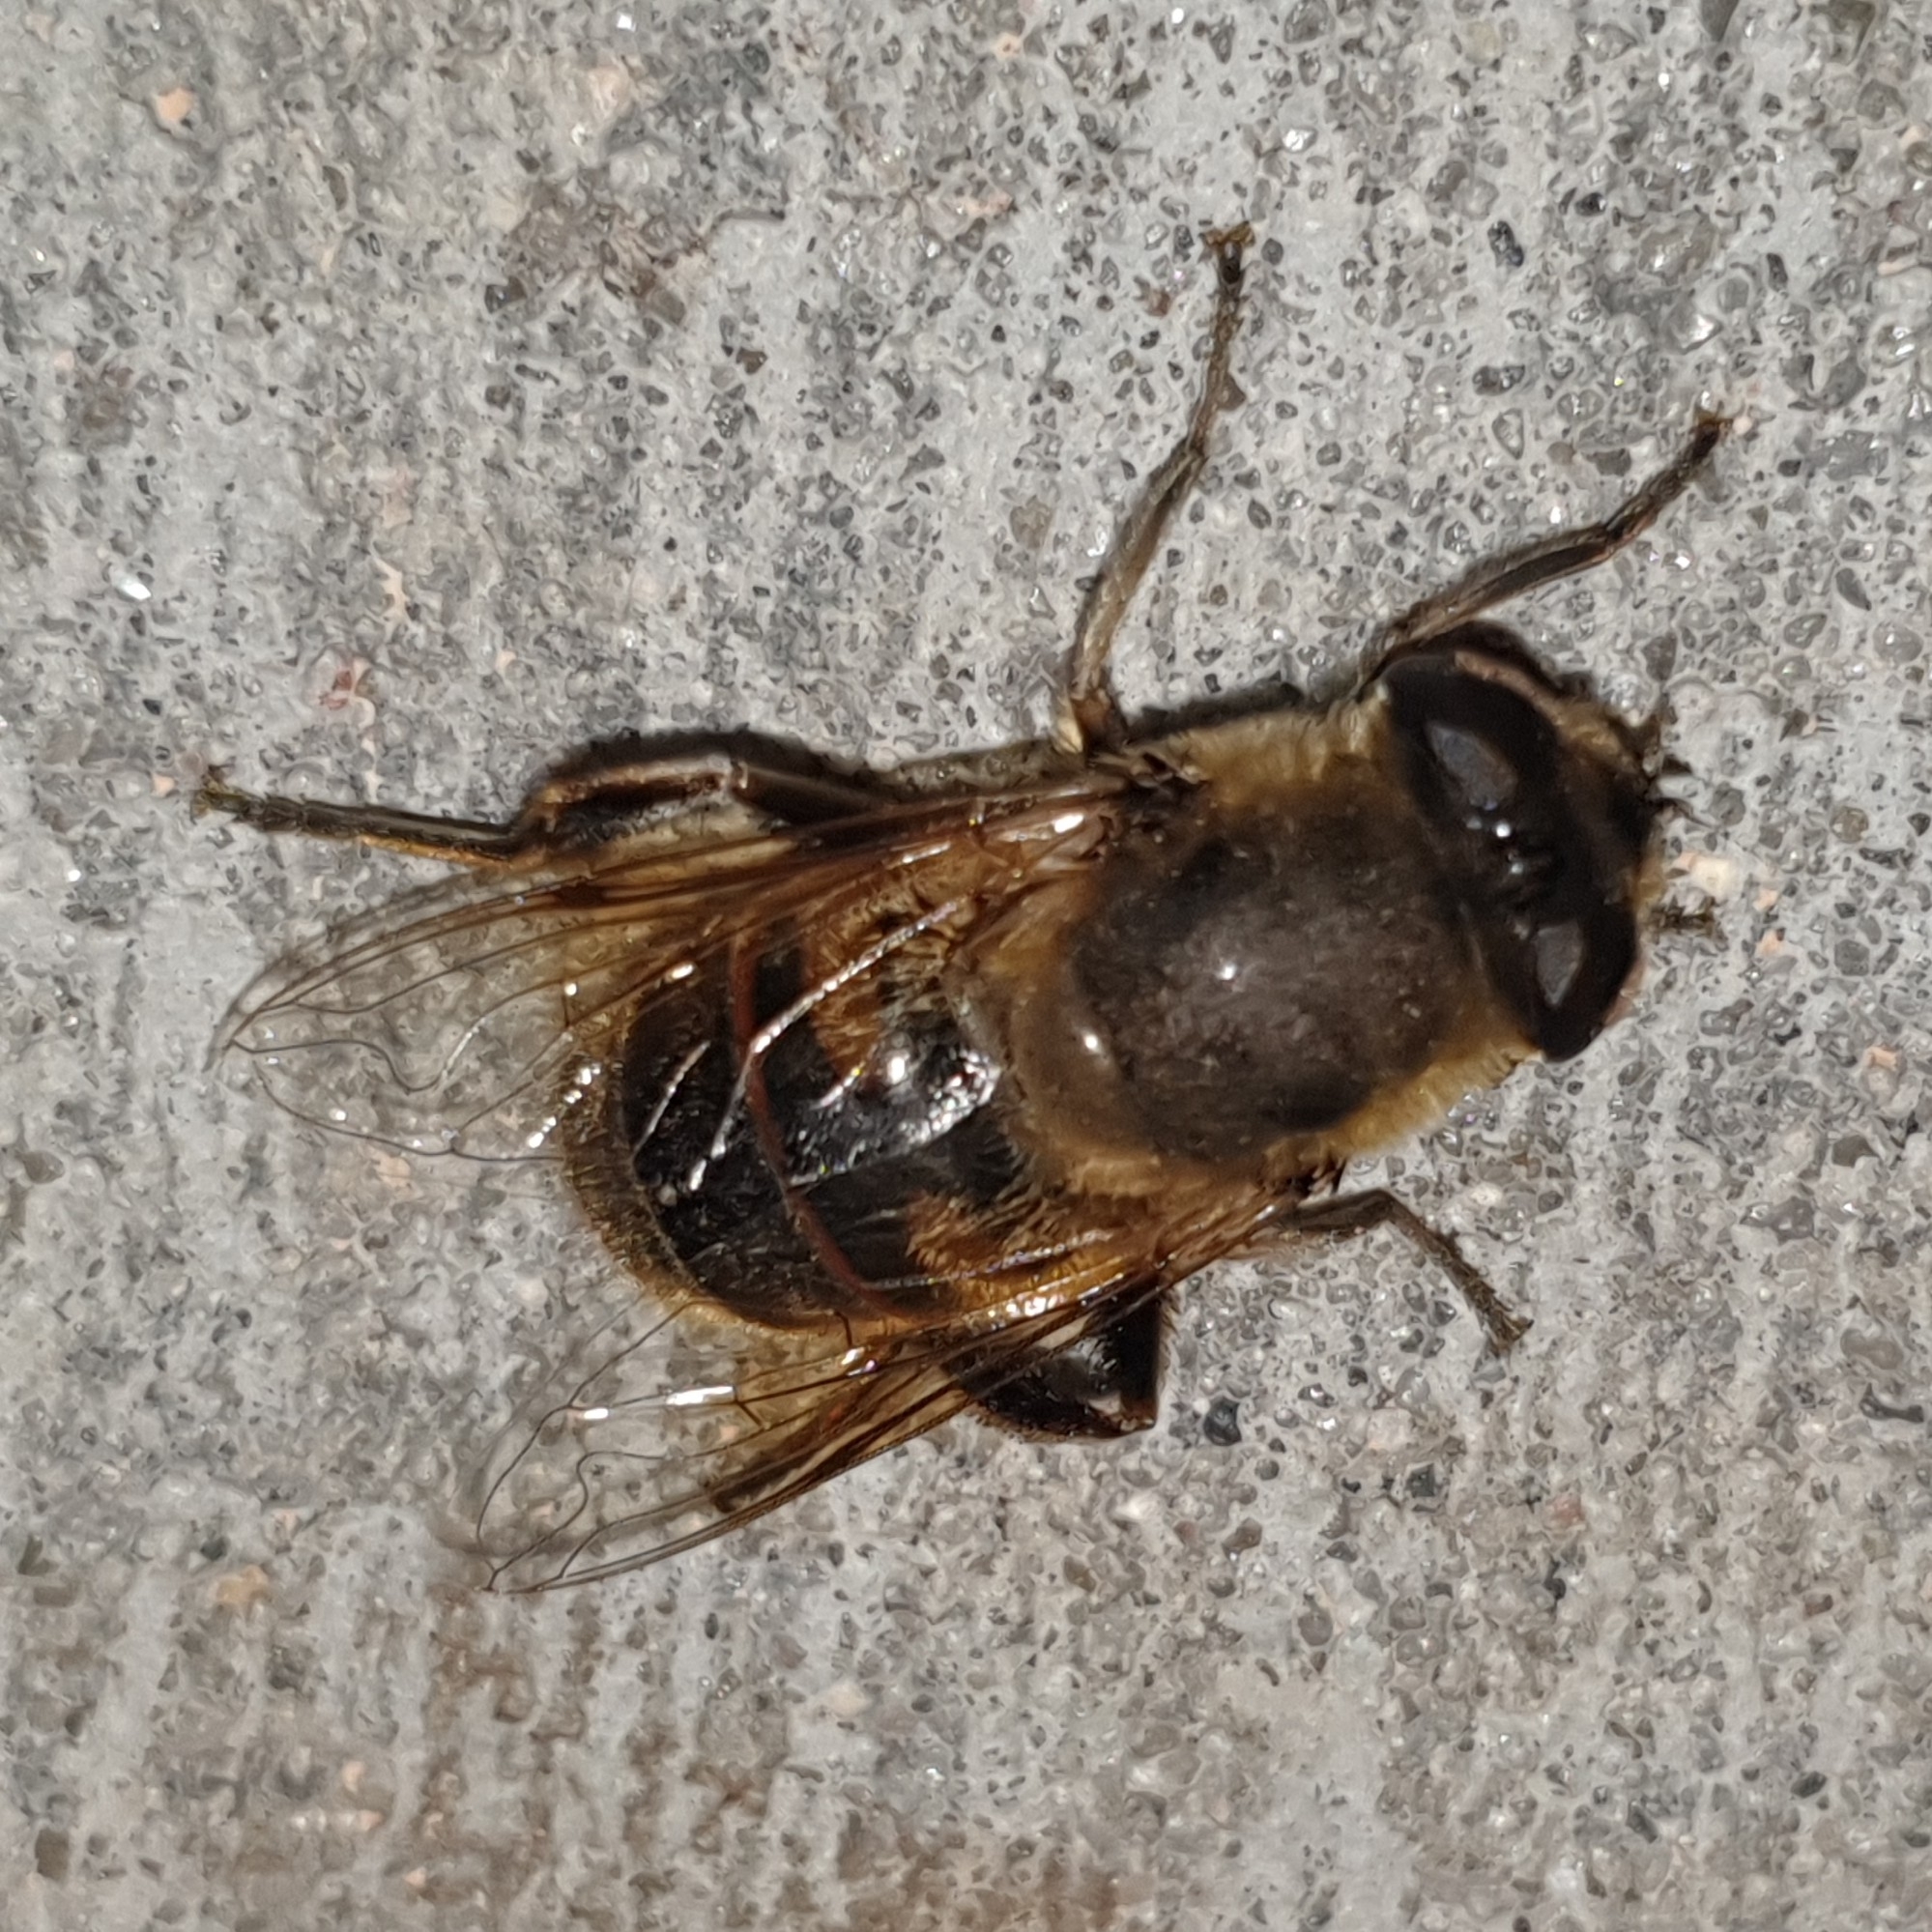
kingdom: Animalia
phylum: Arthropoda
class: Insecta
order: Diptera
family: Syrphidae
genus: Eristalis
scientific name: Eristalis tenax
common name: Drone fly
